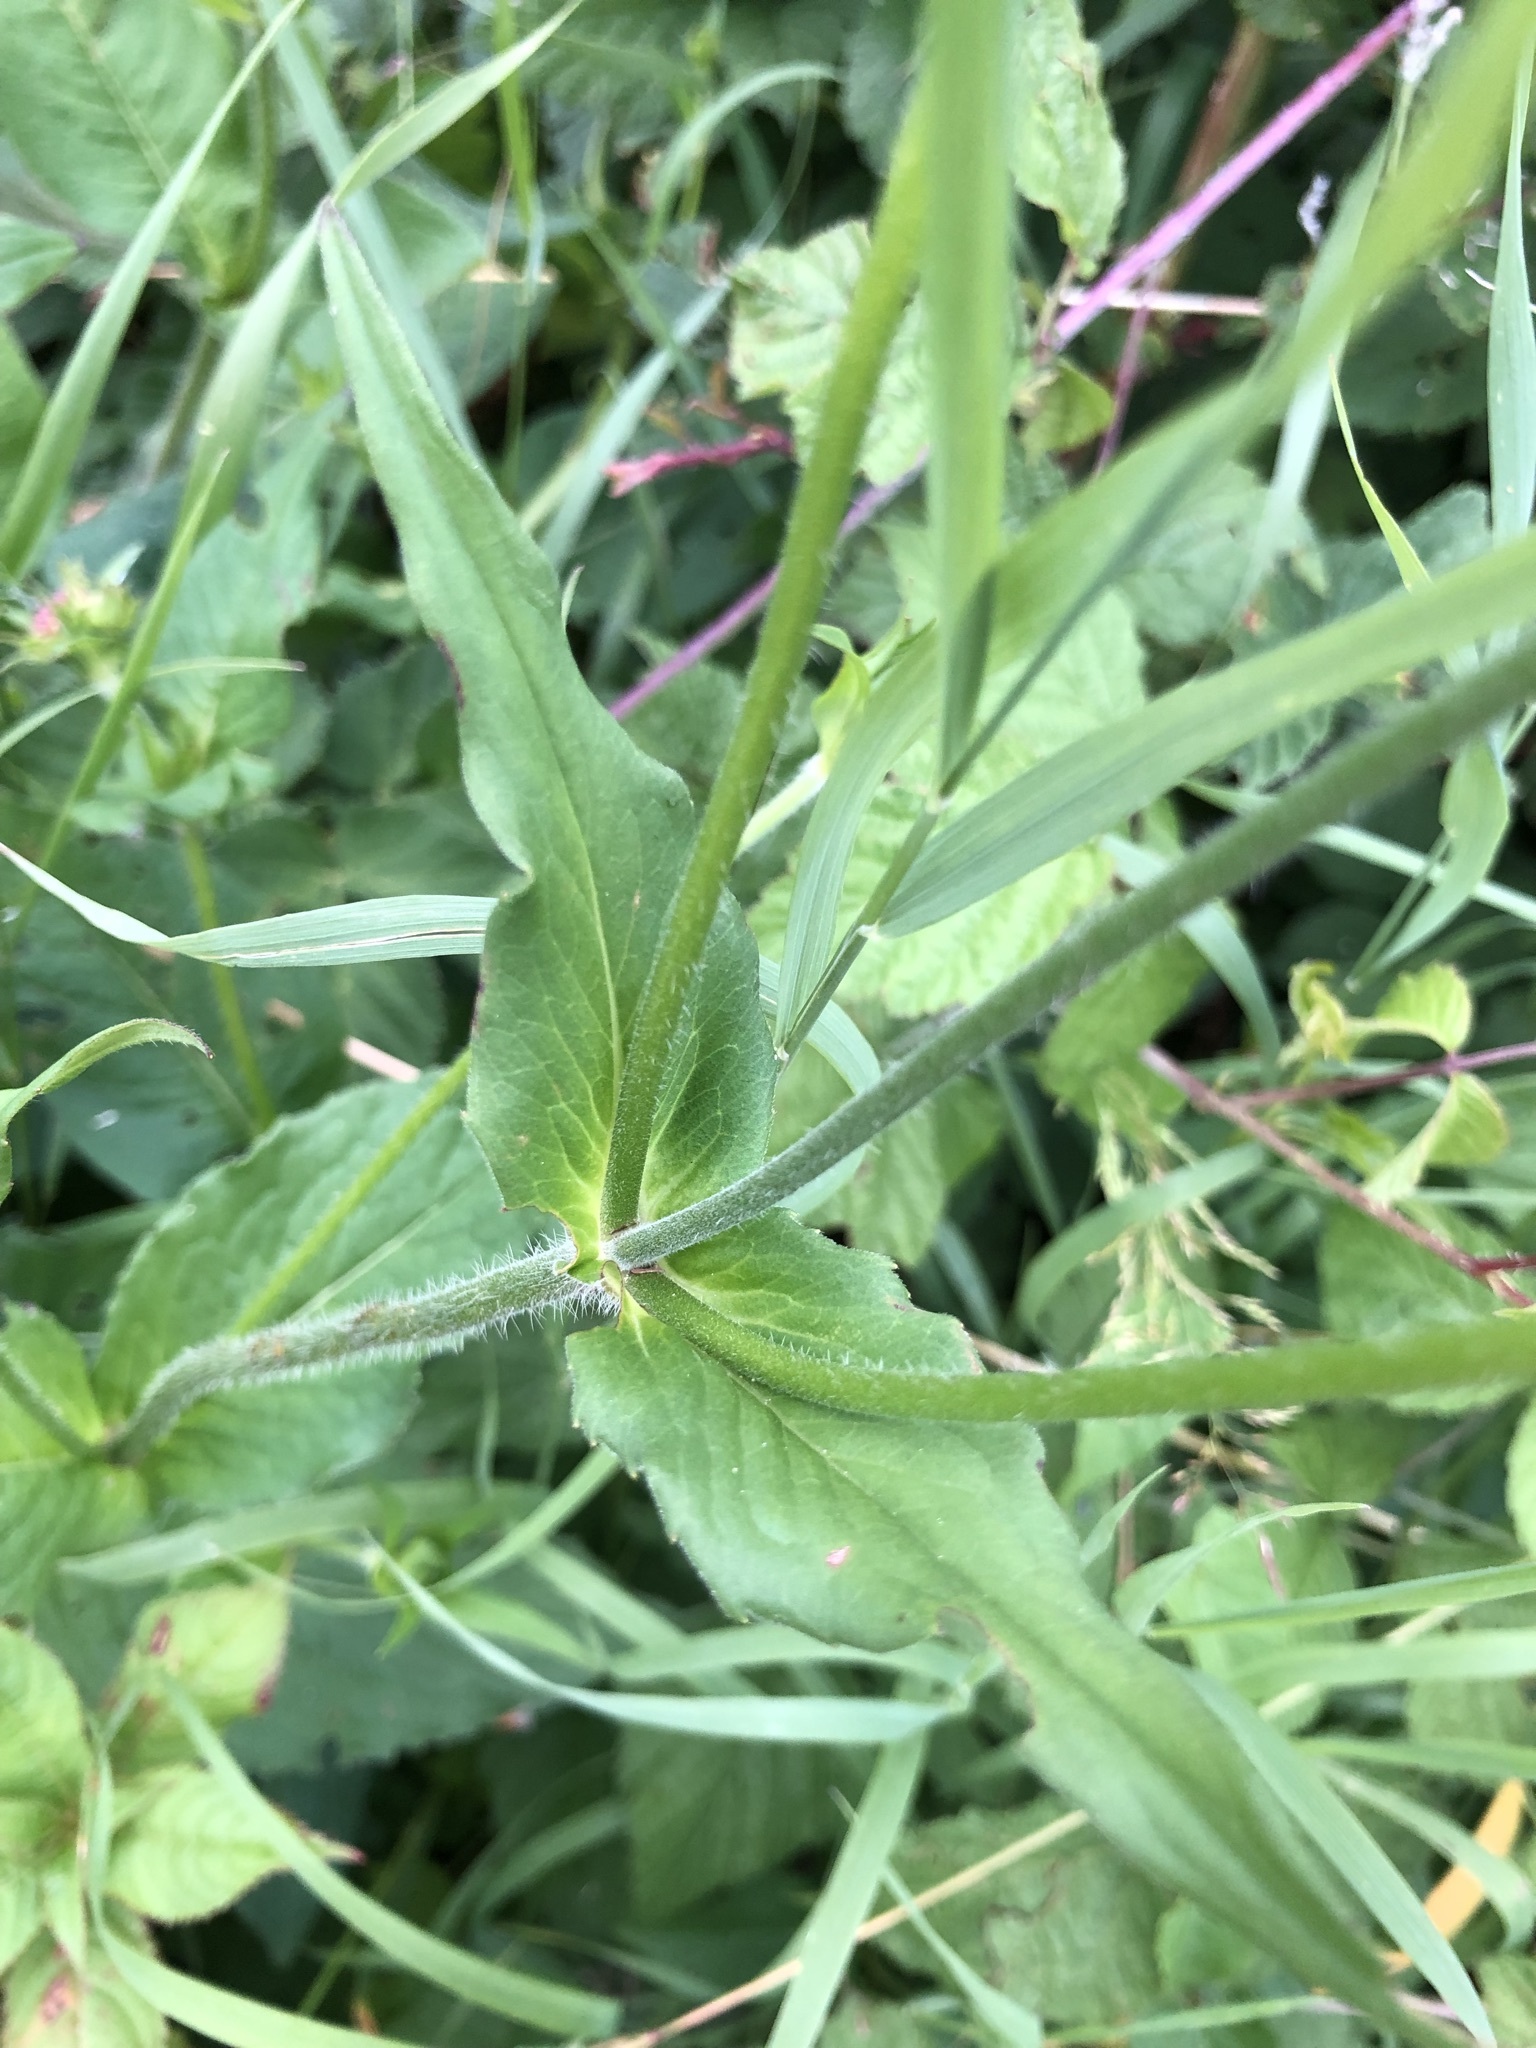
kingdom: Plantae
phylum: Tracheophyta
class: Magnoliopsida
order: Dipsacales
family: Caprifoliaceae
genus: Knautia
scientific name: Knautia dipsacifolia
